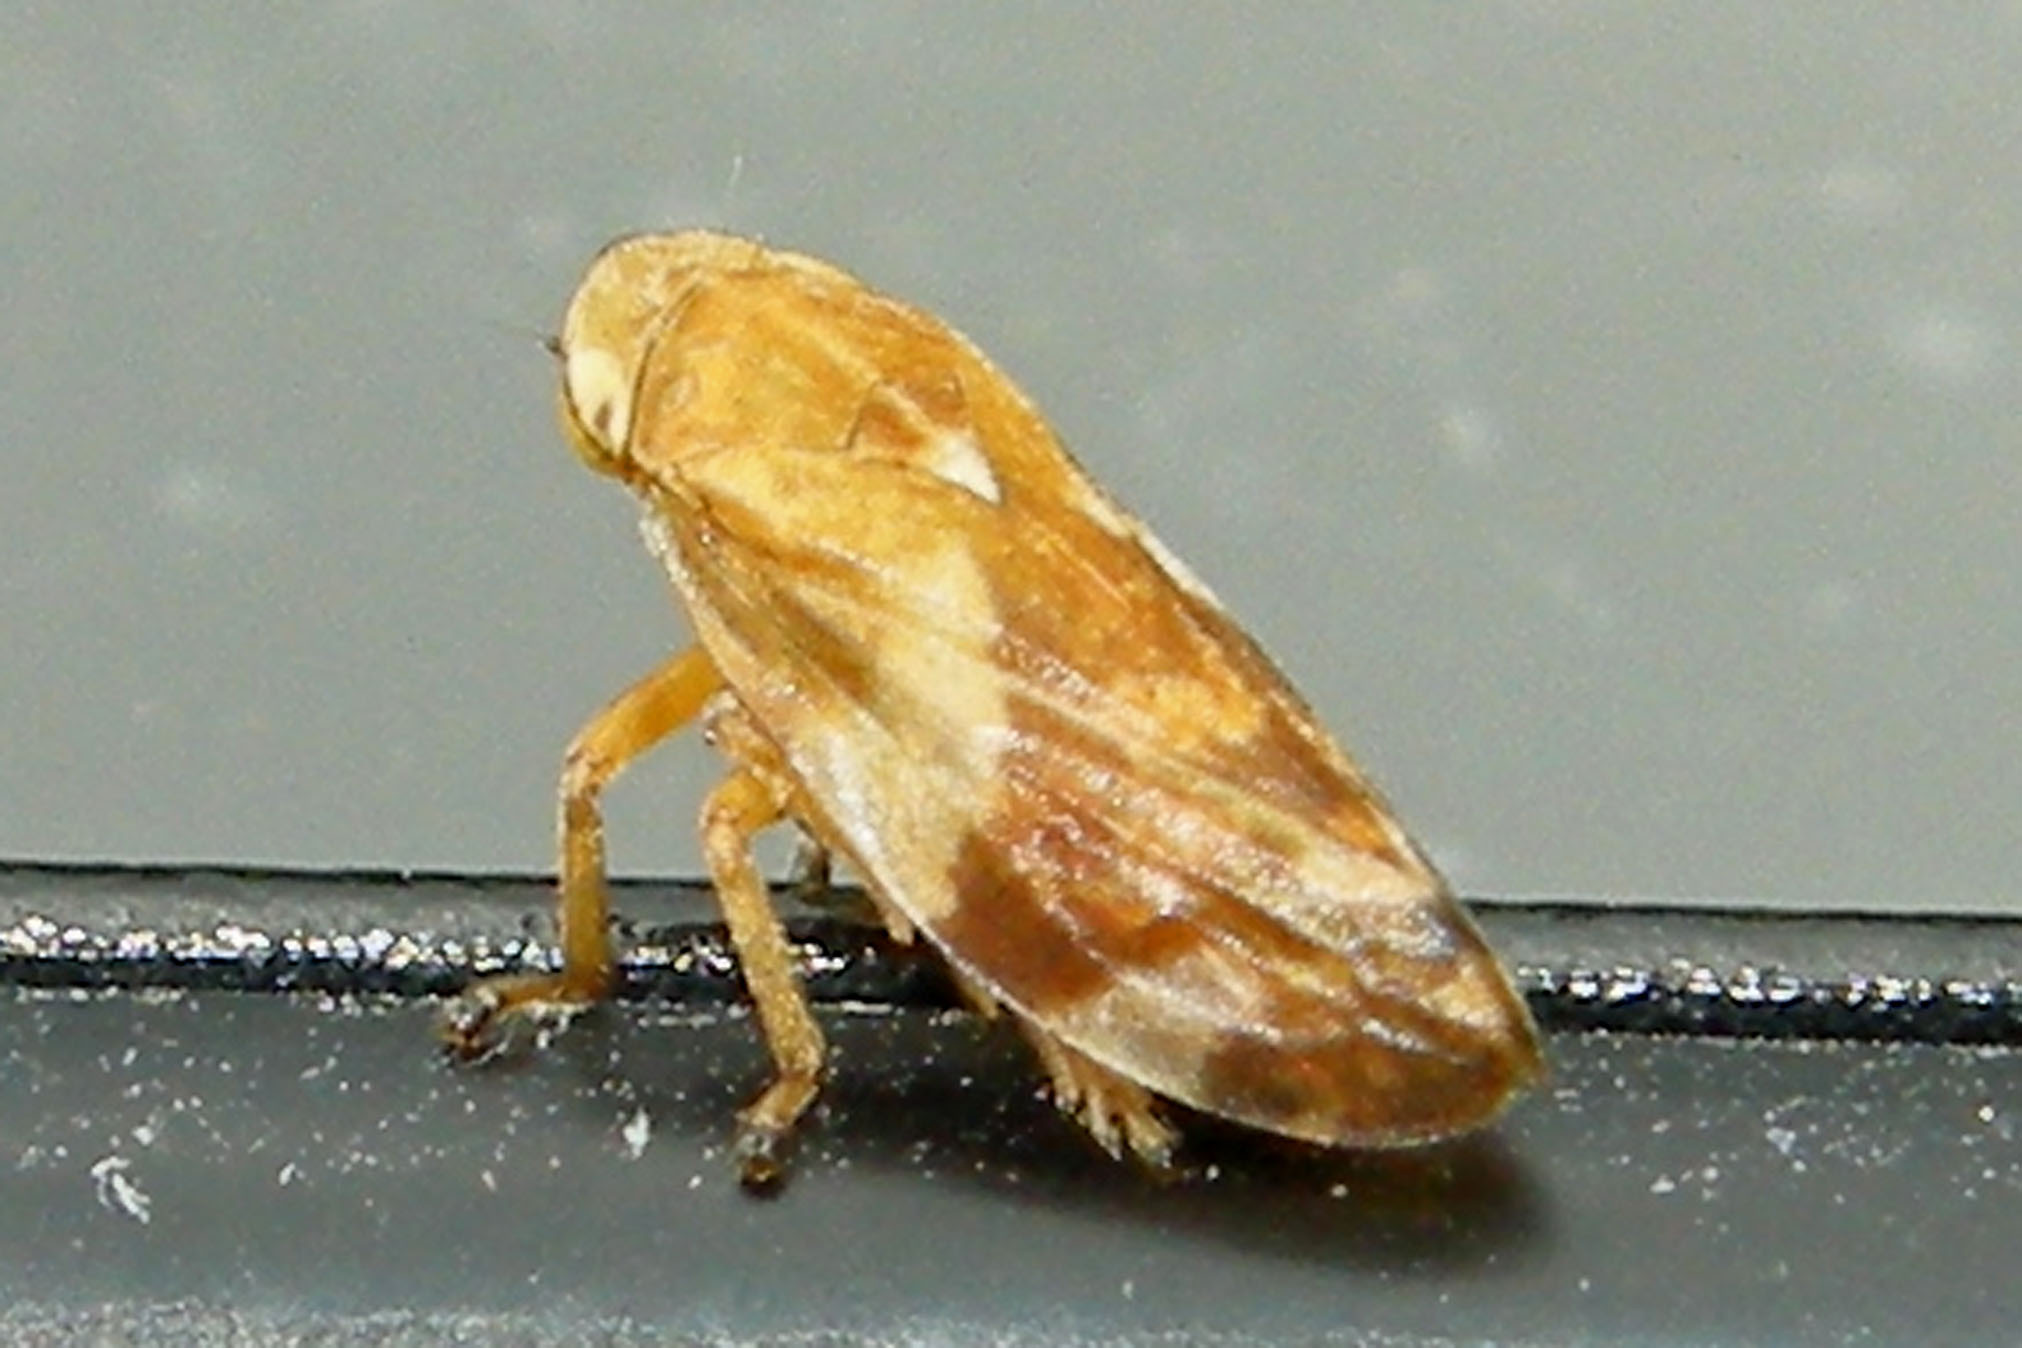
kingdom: Animalia
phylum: Arthropoda
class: Insecta
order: Hemiptera
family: Aphrophoridae
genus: Philaenus
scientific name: Philaenus spumarius
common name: Meadow spittlebug
